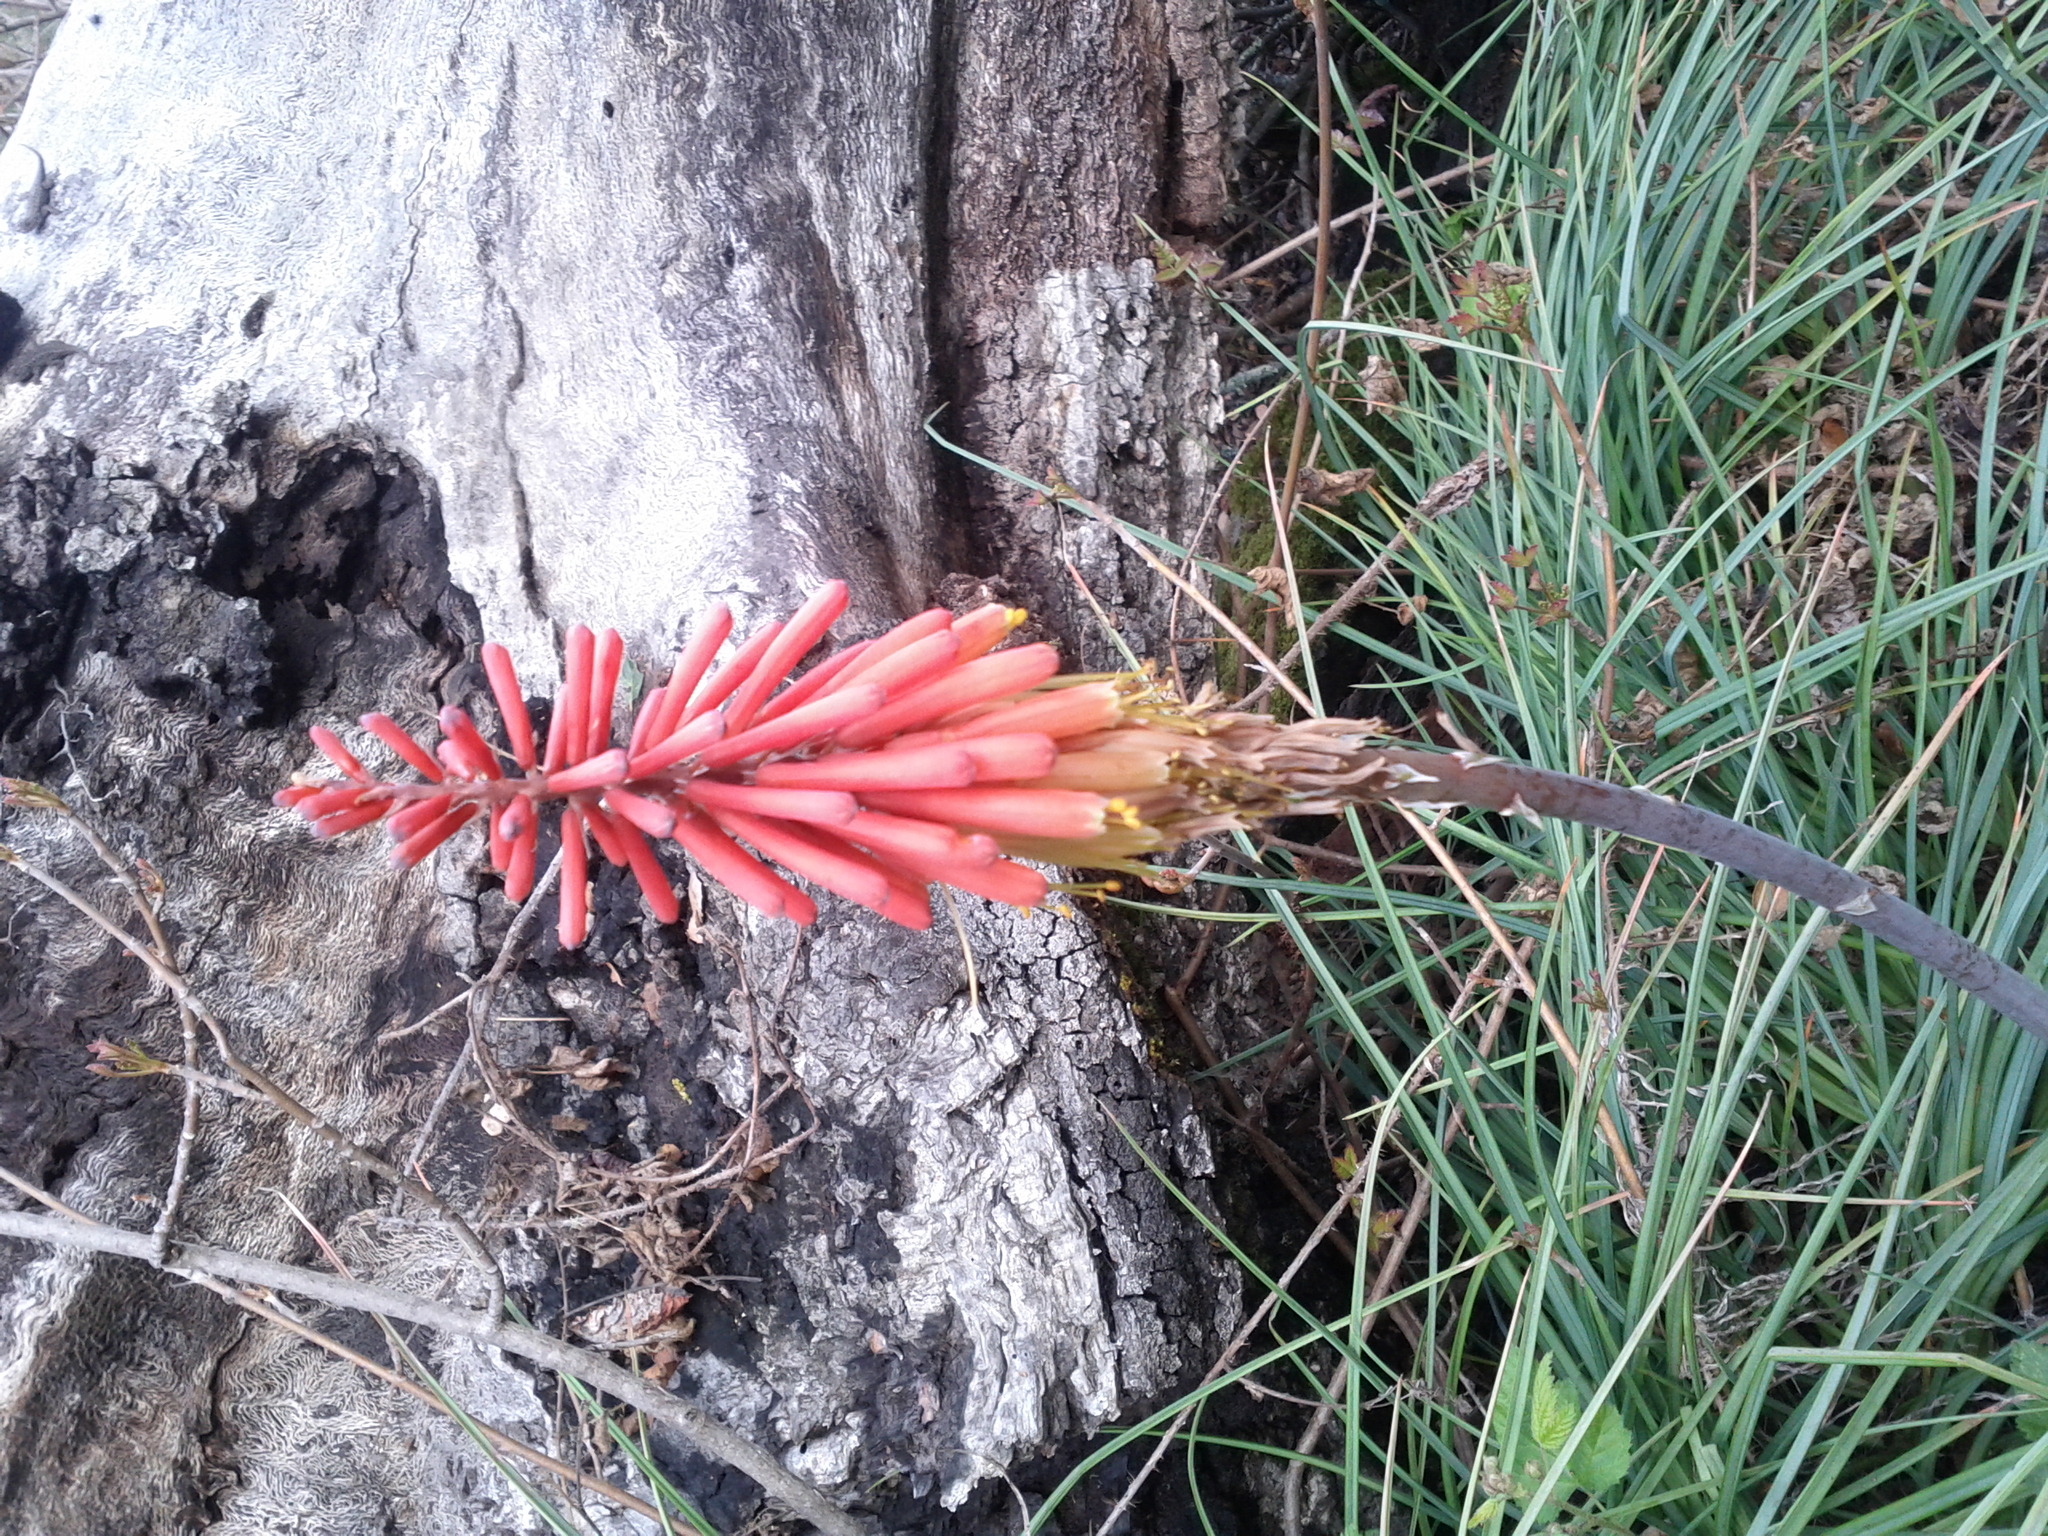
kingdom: Plantae
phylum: Tracheophyta
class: Liliopsida
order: Asparagales
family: Asphodelaceae
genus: Kniphofia
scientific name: Kniphofia uvaria
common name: Red-hot-poker
